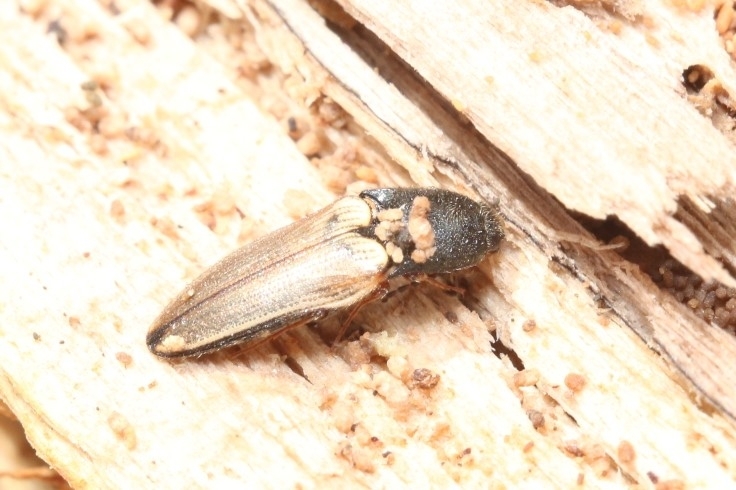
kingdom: Animalia
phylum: Arthropoda
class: Insecta
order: Coleoptera
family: Elateridae
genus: Ampedus
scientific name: Ampedus nigricollis
